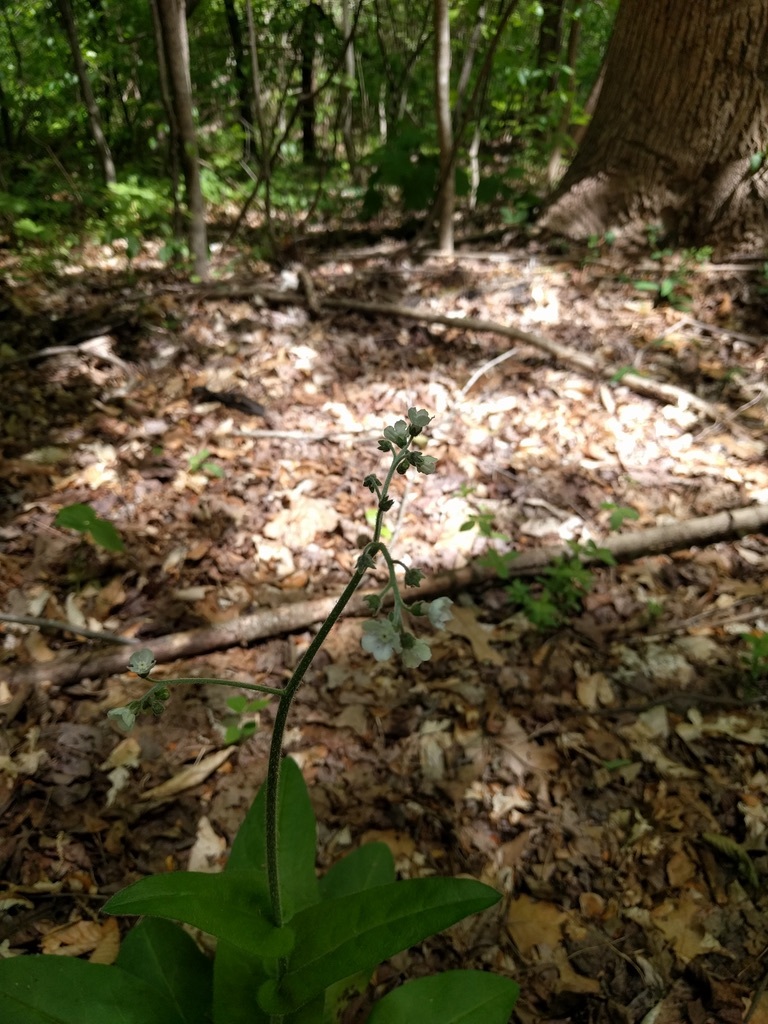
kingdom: Plantae
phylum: Tracheophyta
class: Magnoliopsida
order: Boraginales
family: Boraginaceae
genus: Andersonglossum
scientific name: Andersonglossum virginianum
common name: Wild comfrey
